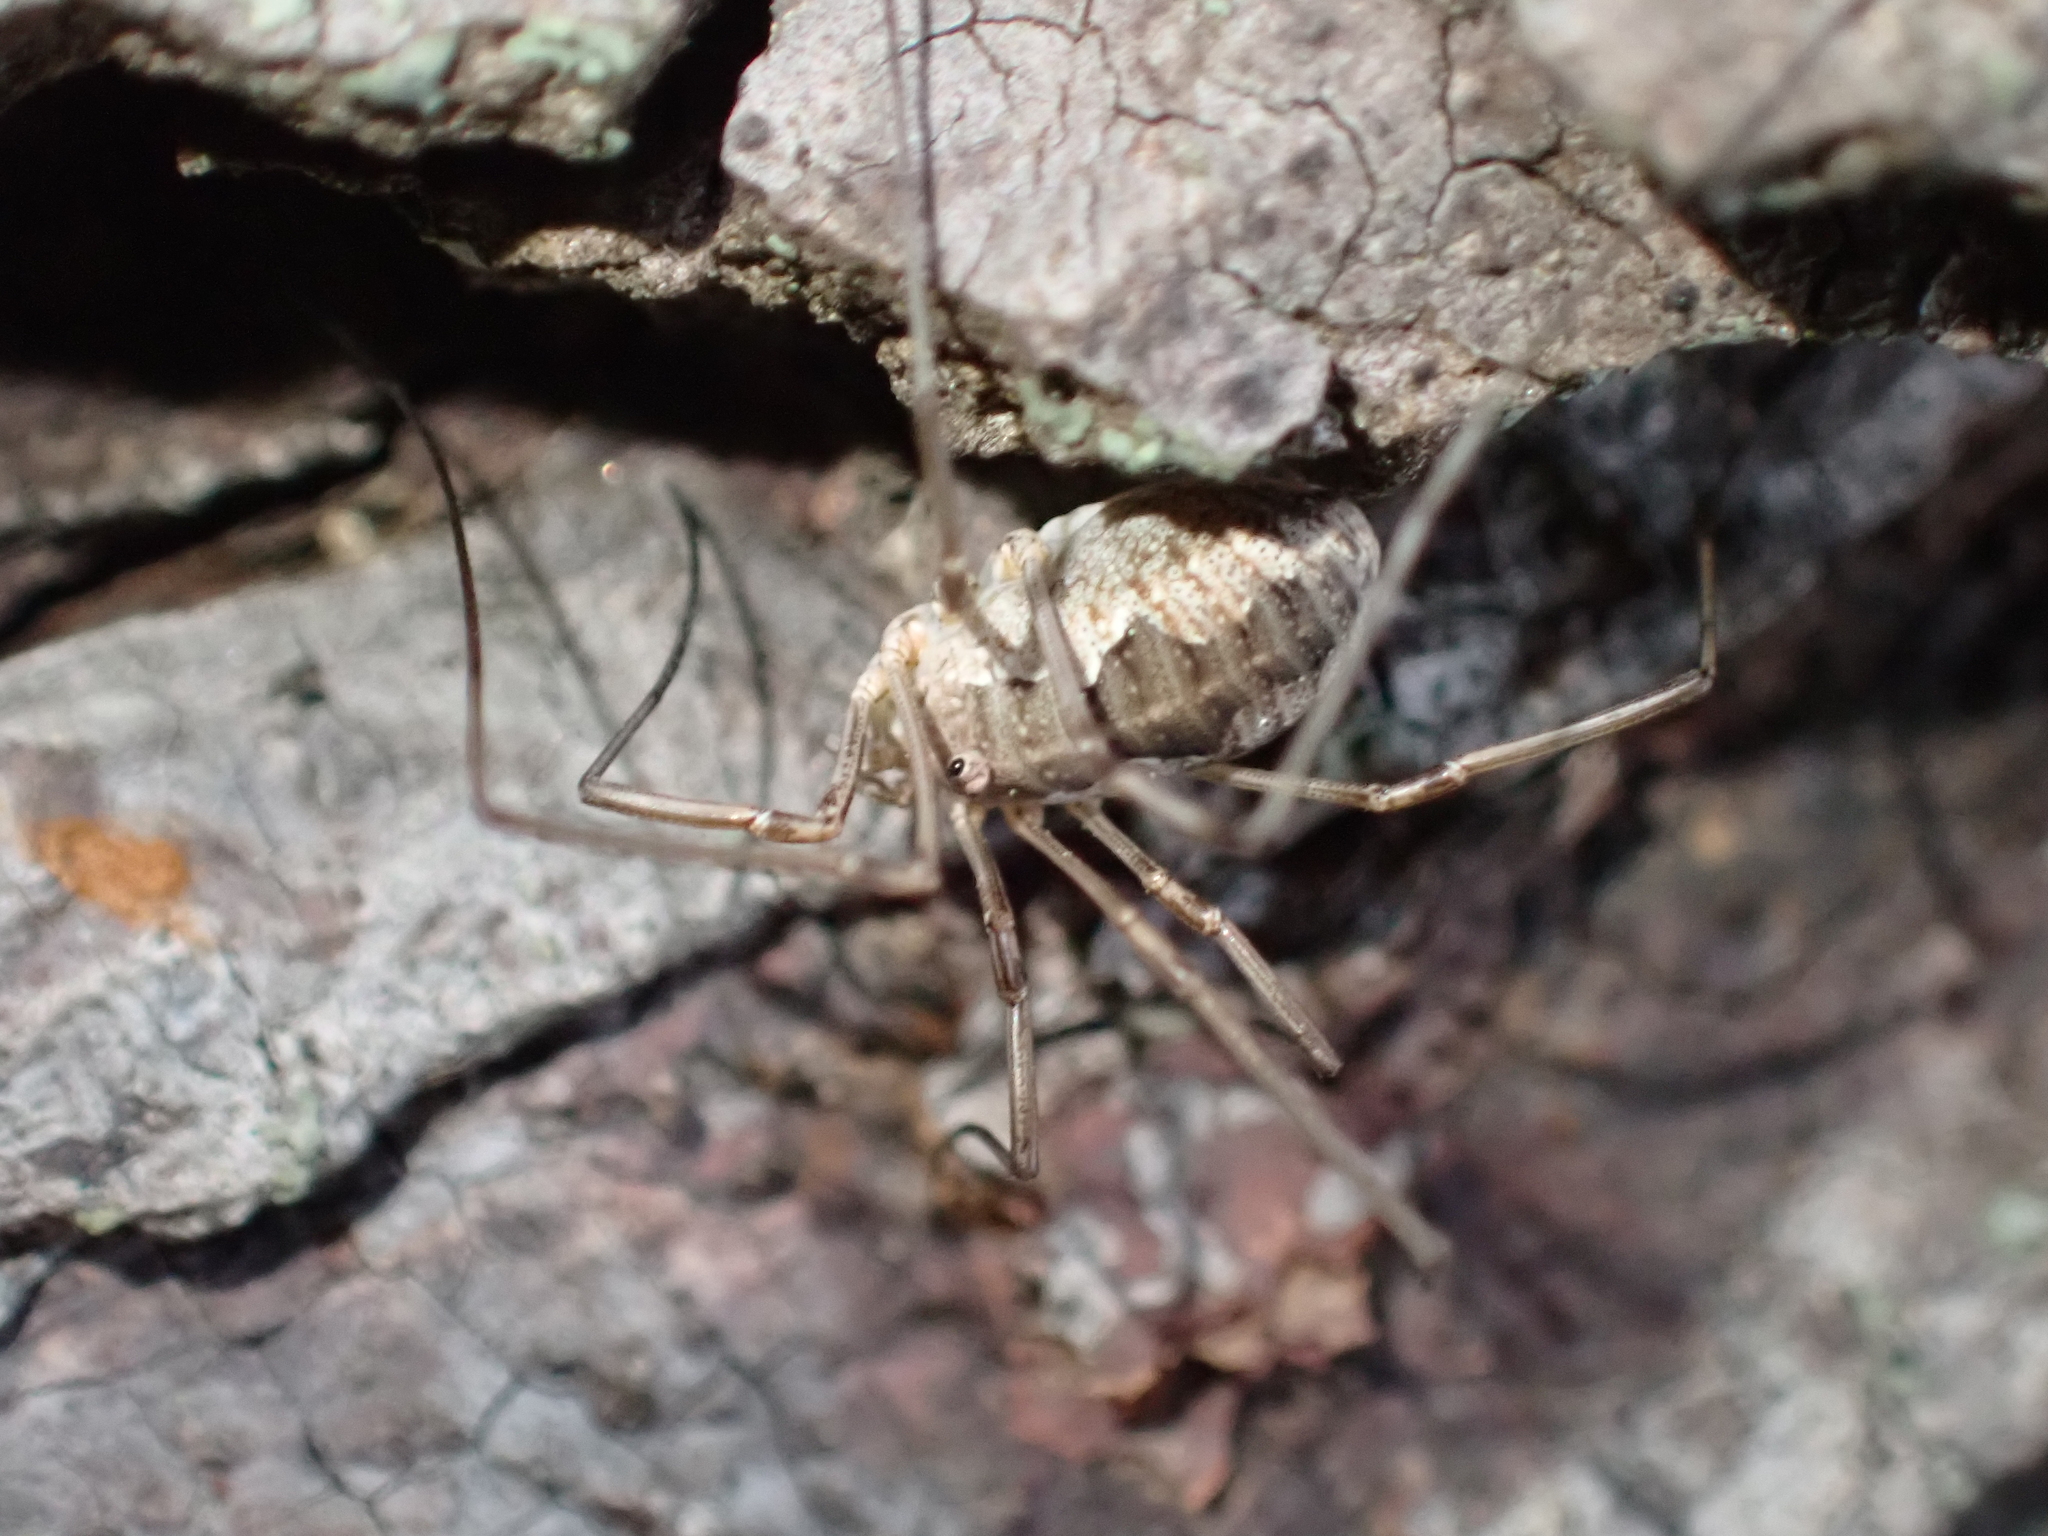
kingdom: Animalia
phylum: Arthropoda
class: Arachnida
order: Opiliones
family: Phalangiidae
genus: Phalangium
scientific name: Phalangium opilio
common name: Daddy longleg
